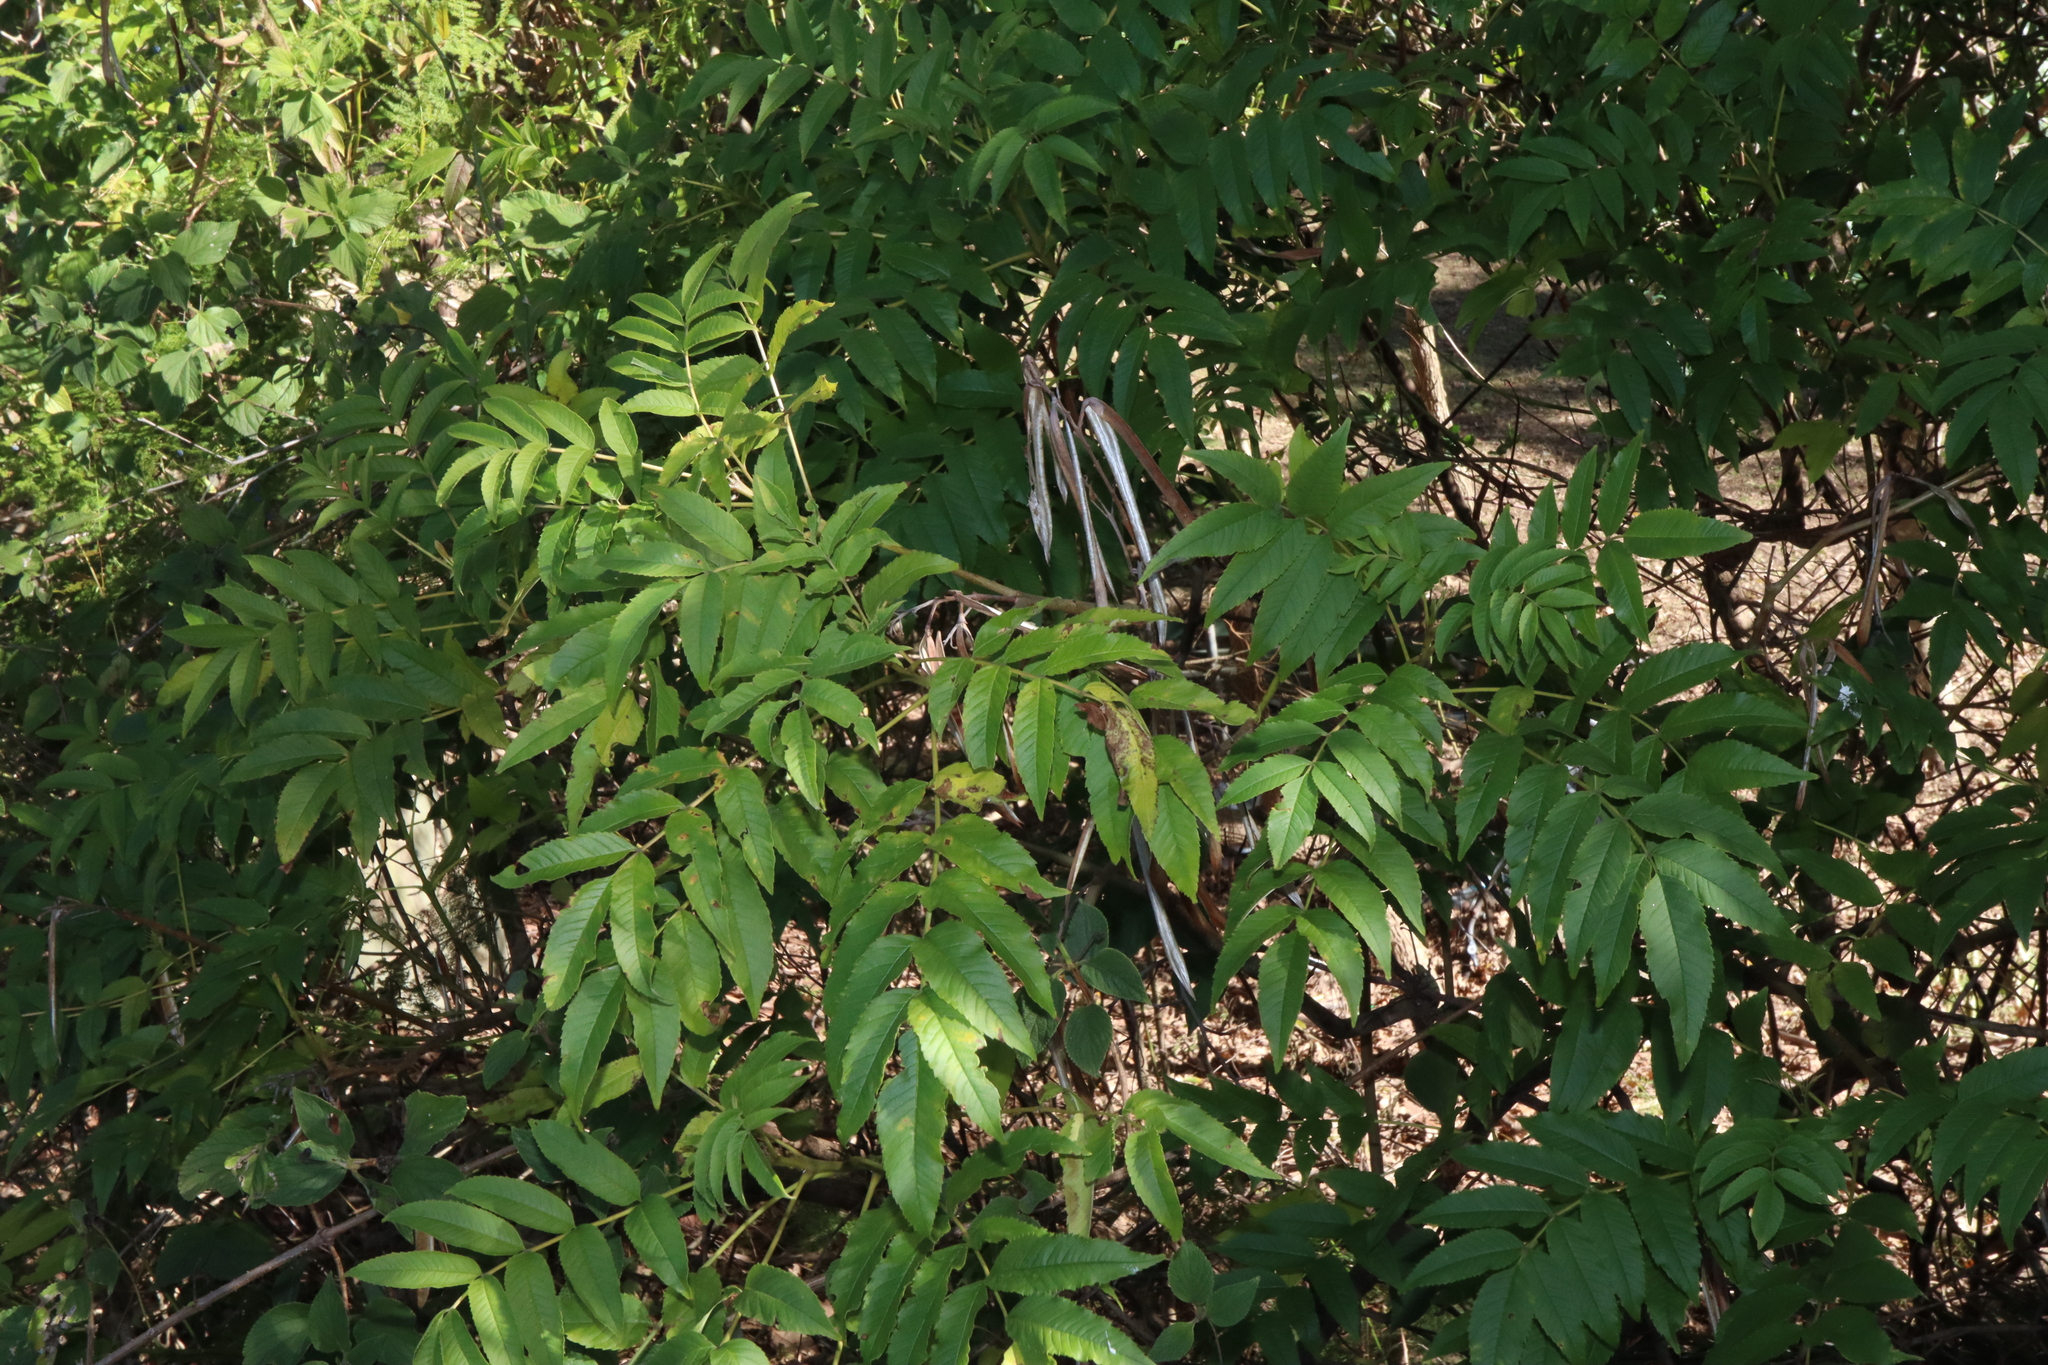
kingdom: Plantae
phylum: Tracheophyta
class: Magnoliopsida
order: Lamiales
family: Bignoniaceae
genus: Tecoma
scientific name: Tecoma stans
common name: Yellow trumpetbush
